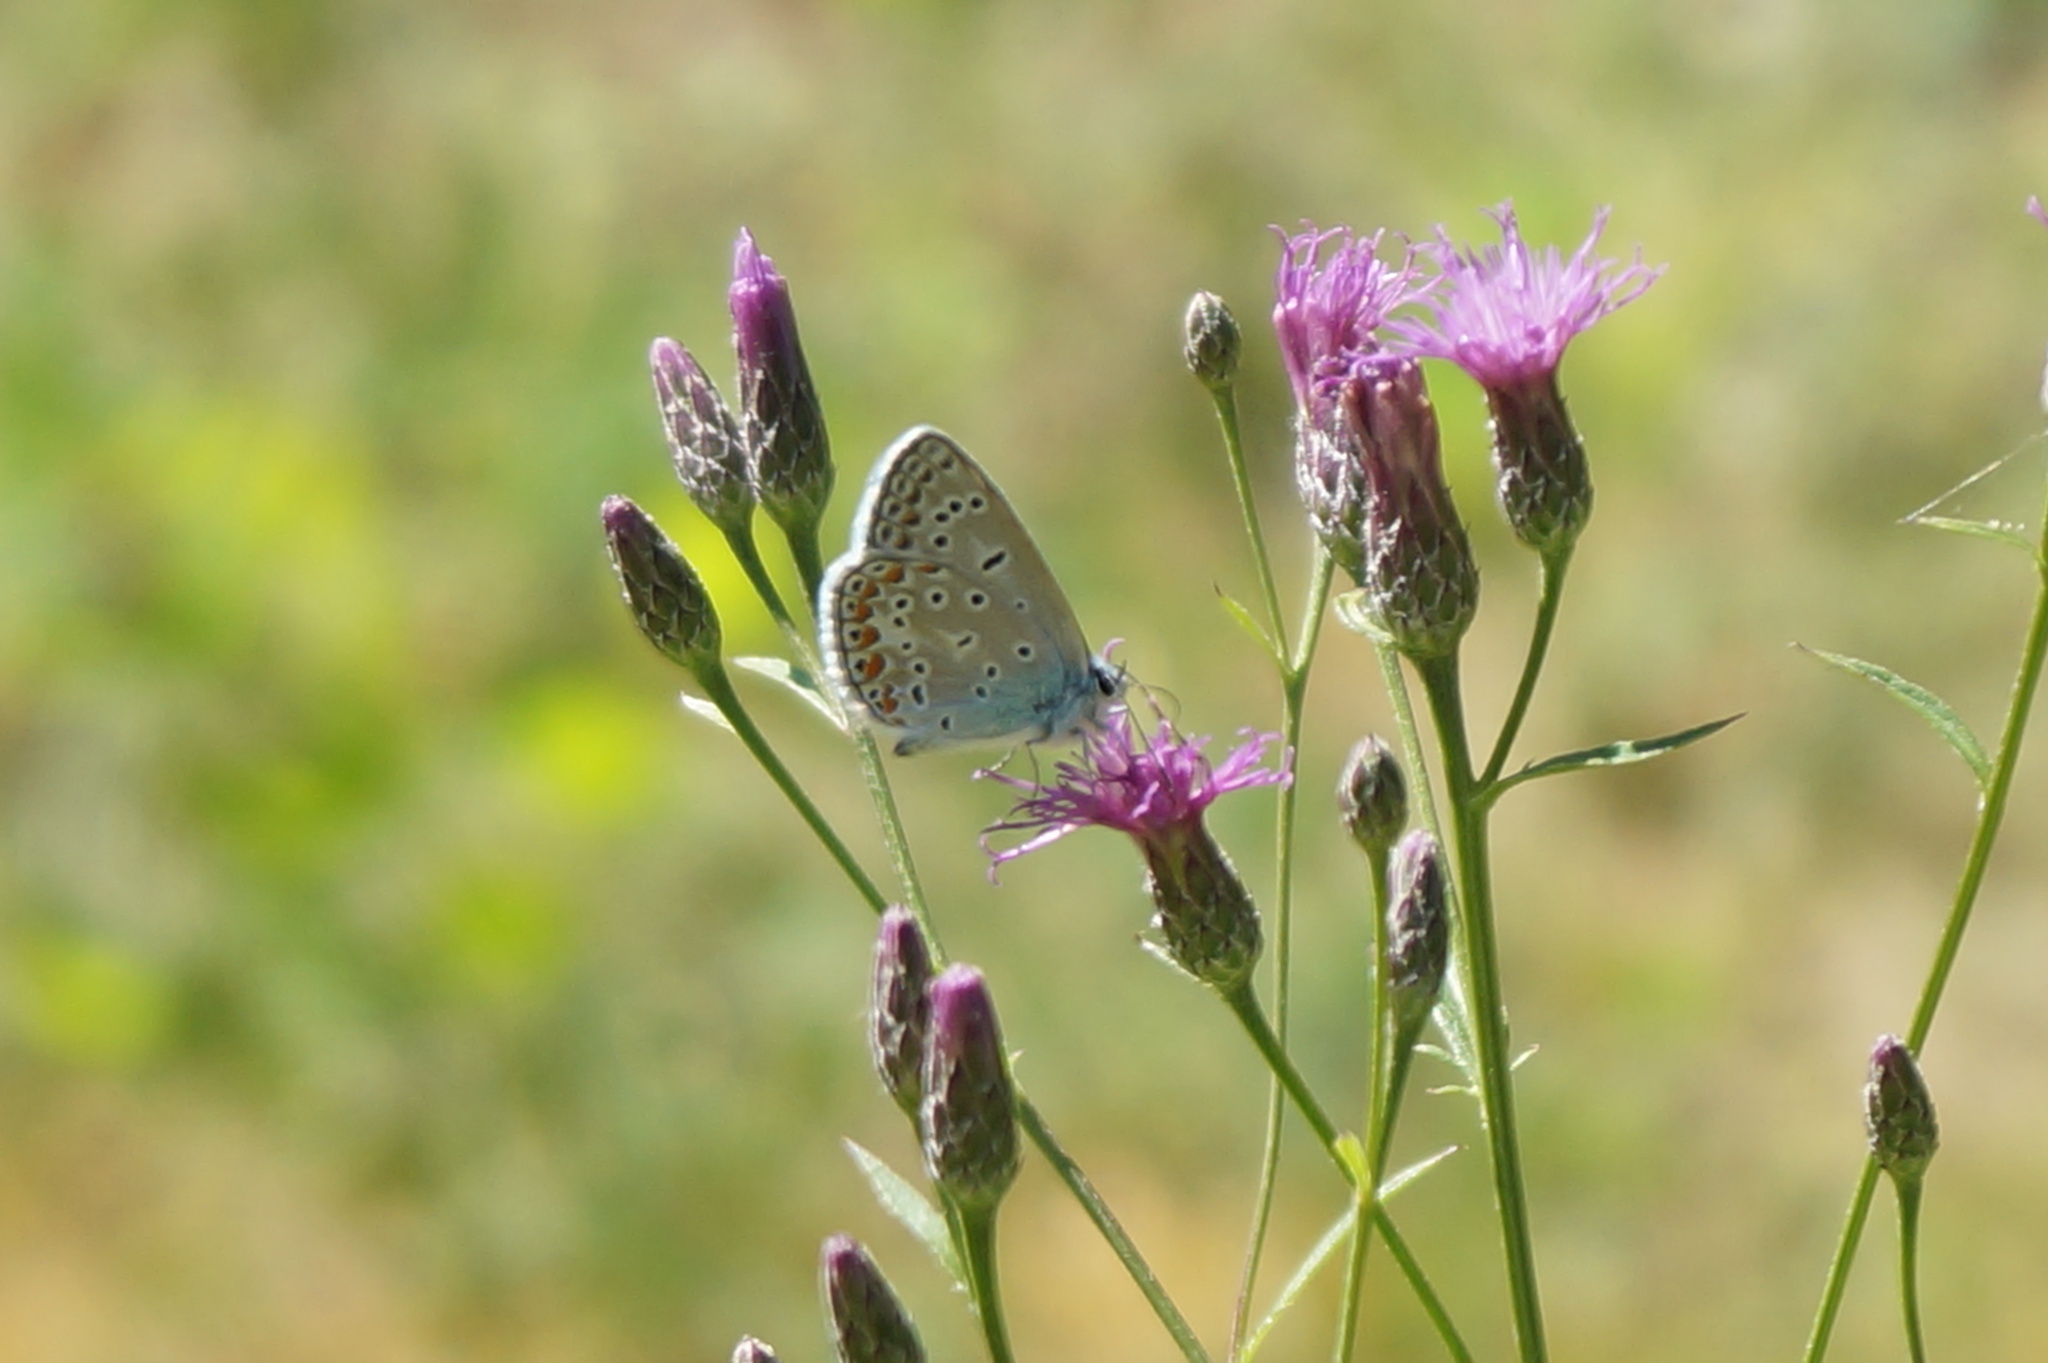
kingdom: Animalia
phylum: Arthropoda
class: Insecta
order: Lepidoptera
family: Lycaenidae
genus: Polyommatus
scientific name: Polyommatus icarus
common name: Common blue
